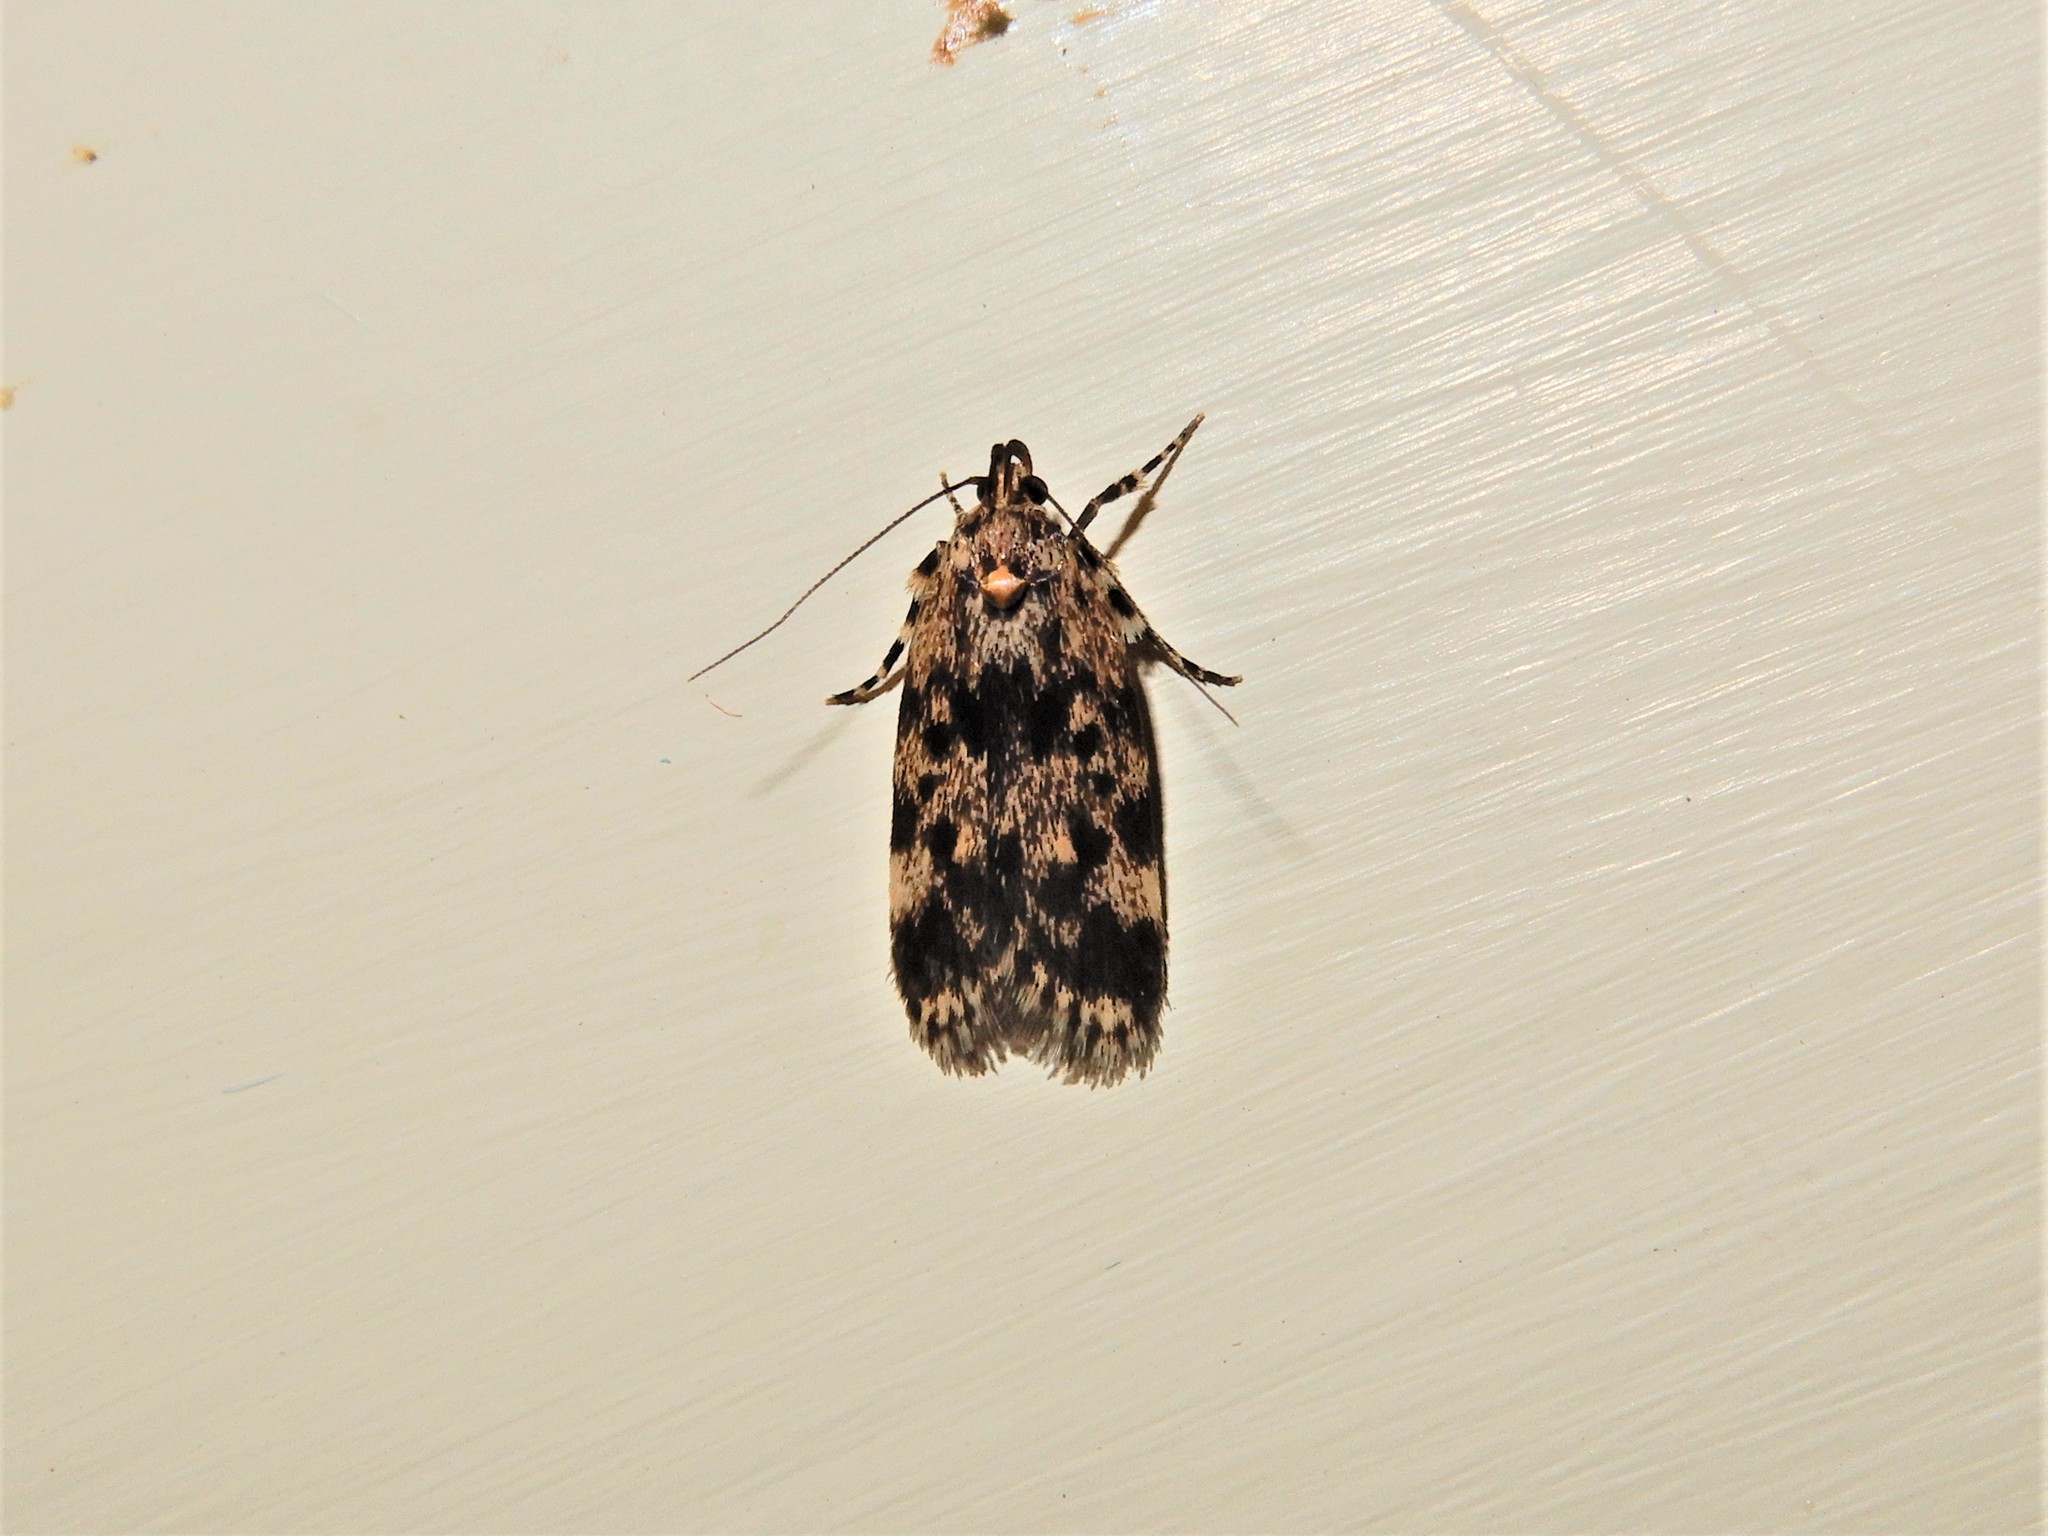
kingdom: Animalia
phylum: Arthropoda
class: Insecta
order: Lepidoptera
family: Oecophoridae
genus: Barea
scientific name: Barea codrella
